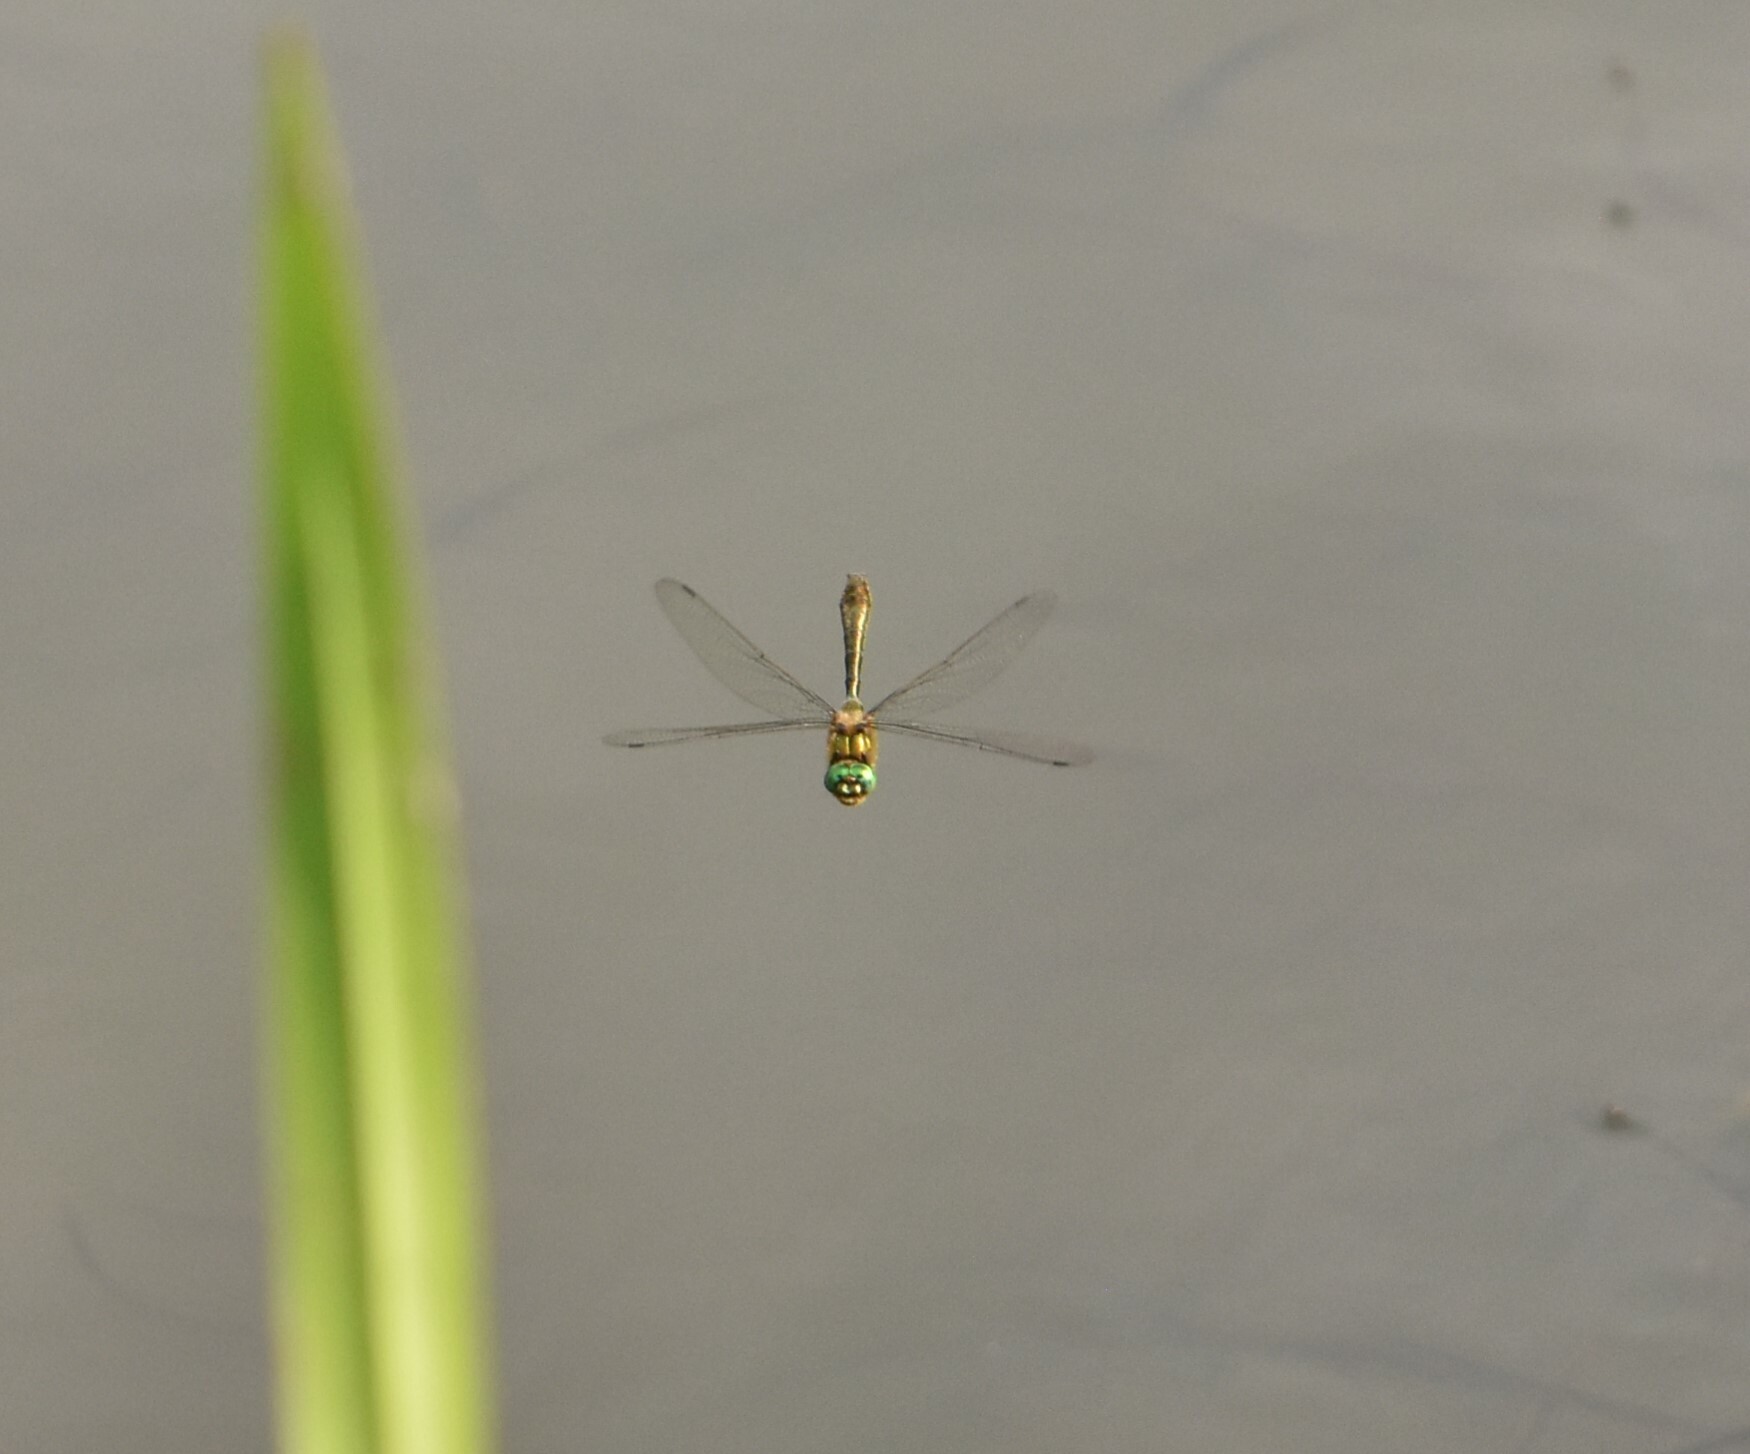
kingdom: Animalia
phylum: Arthropoda
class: Insecta
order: Odonata
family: Corduliidae
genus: Cordulia
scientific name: Cordulia aenea
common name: Downy emerald
